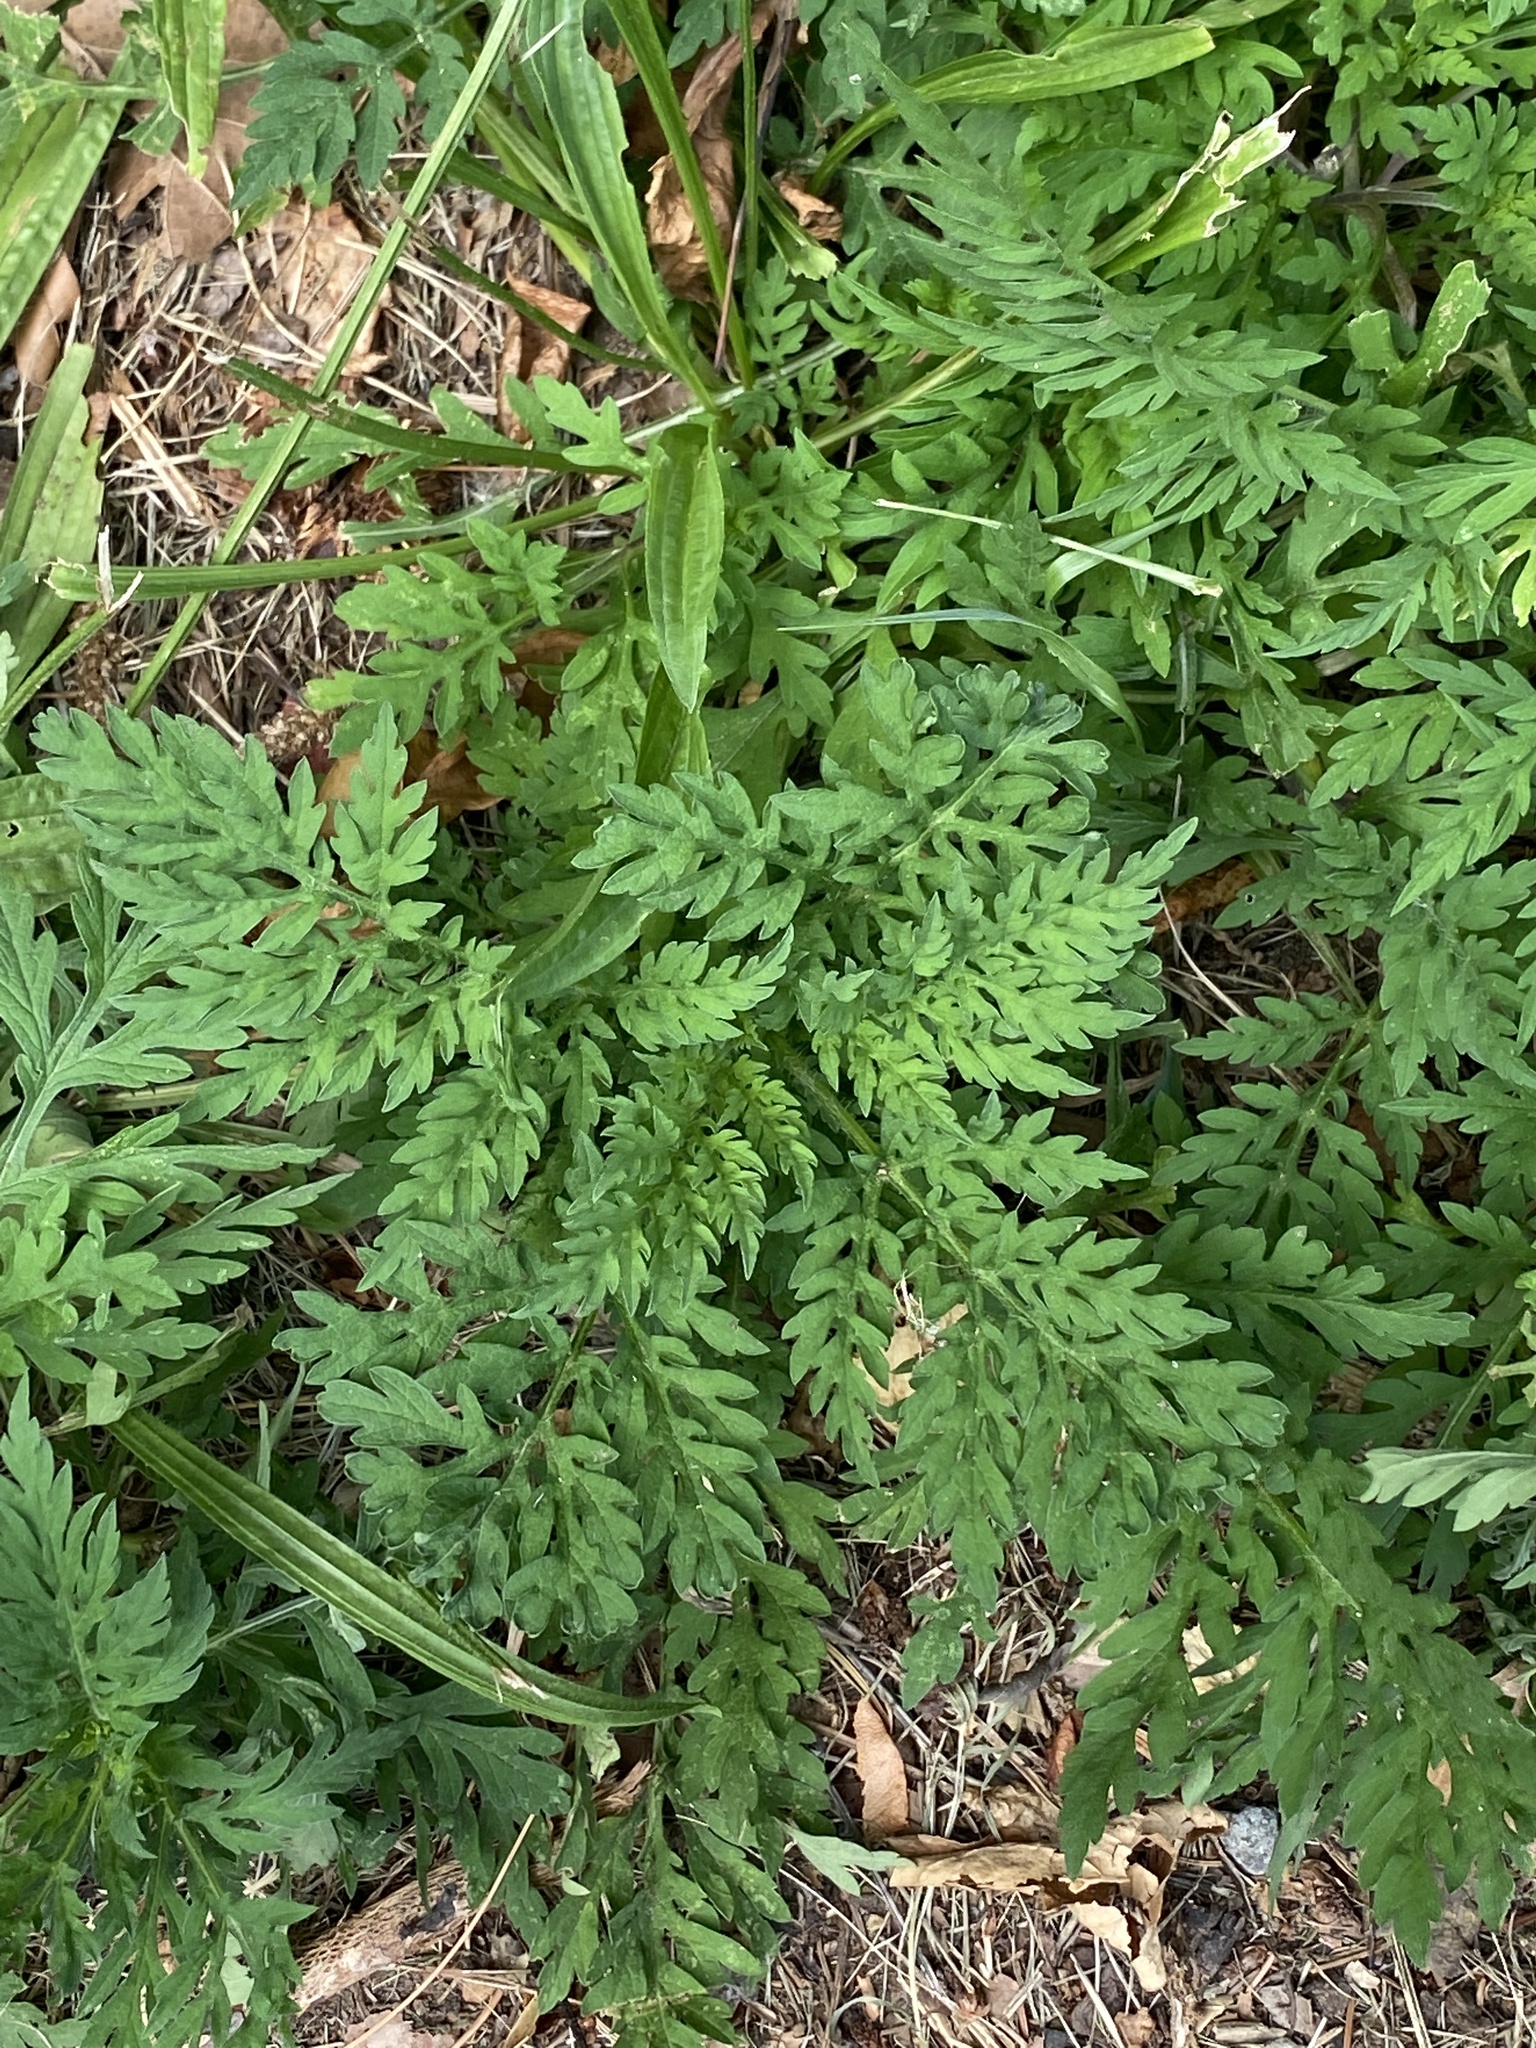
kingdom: Plantae
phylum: Tracheophyta
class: Magnoliopsida
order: Asterales
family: Asteraceae
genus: Ambrosia
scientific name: Ambrosia artemisiifolia
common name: Annual ragweed
